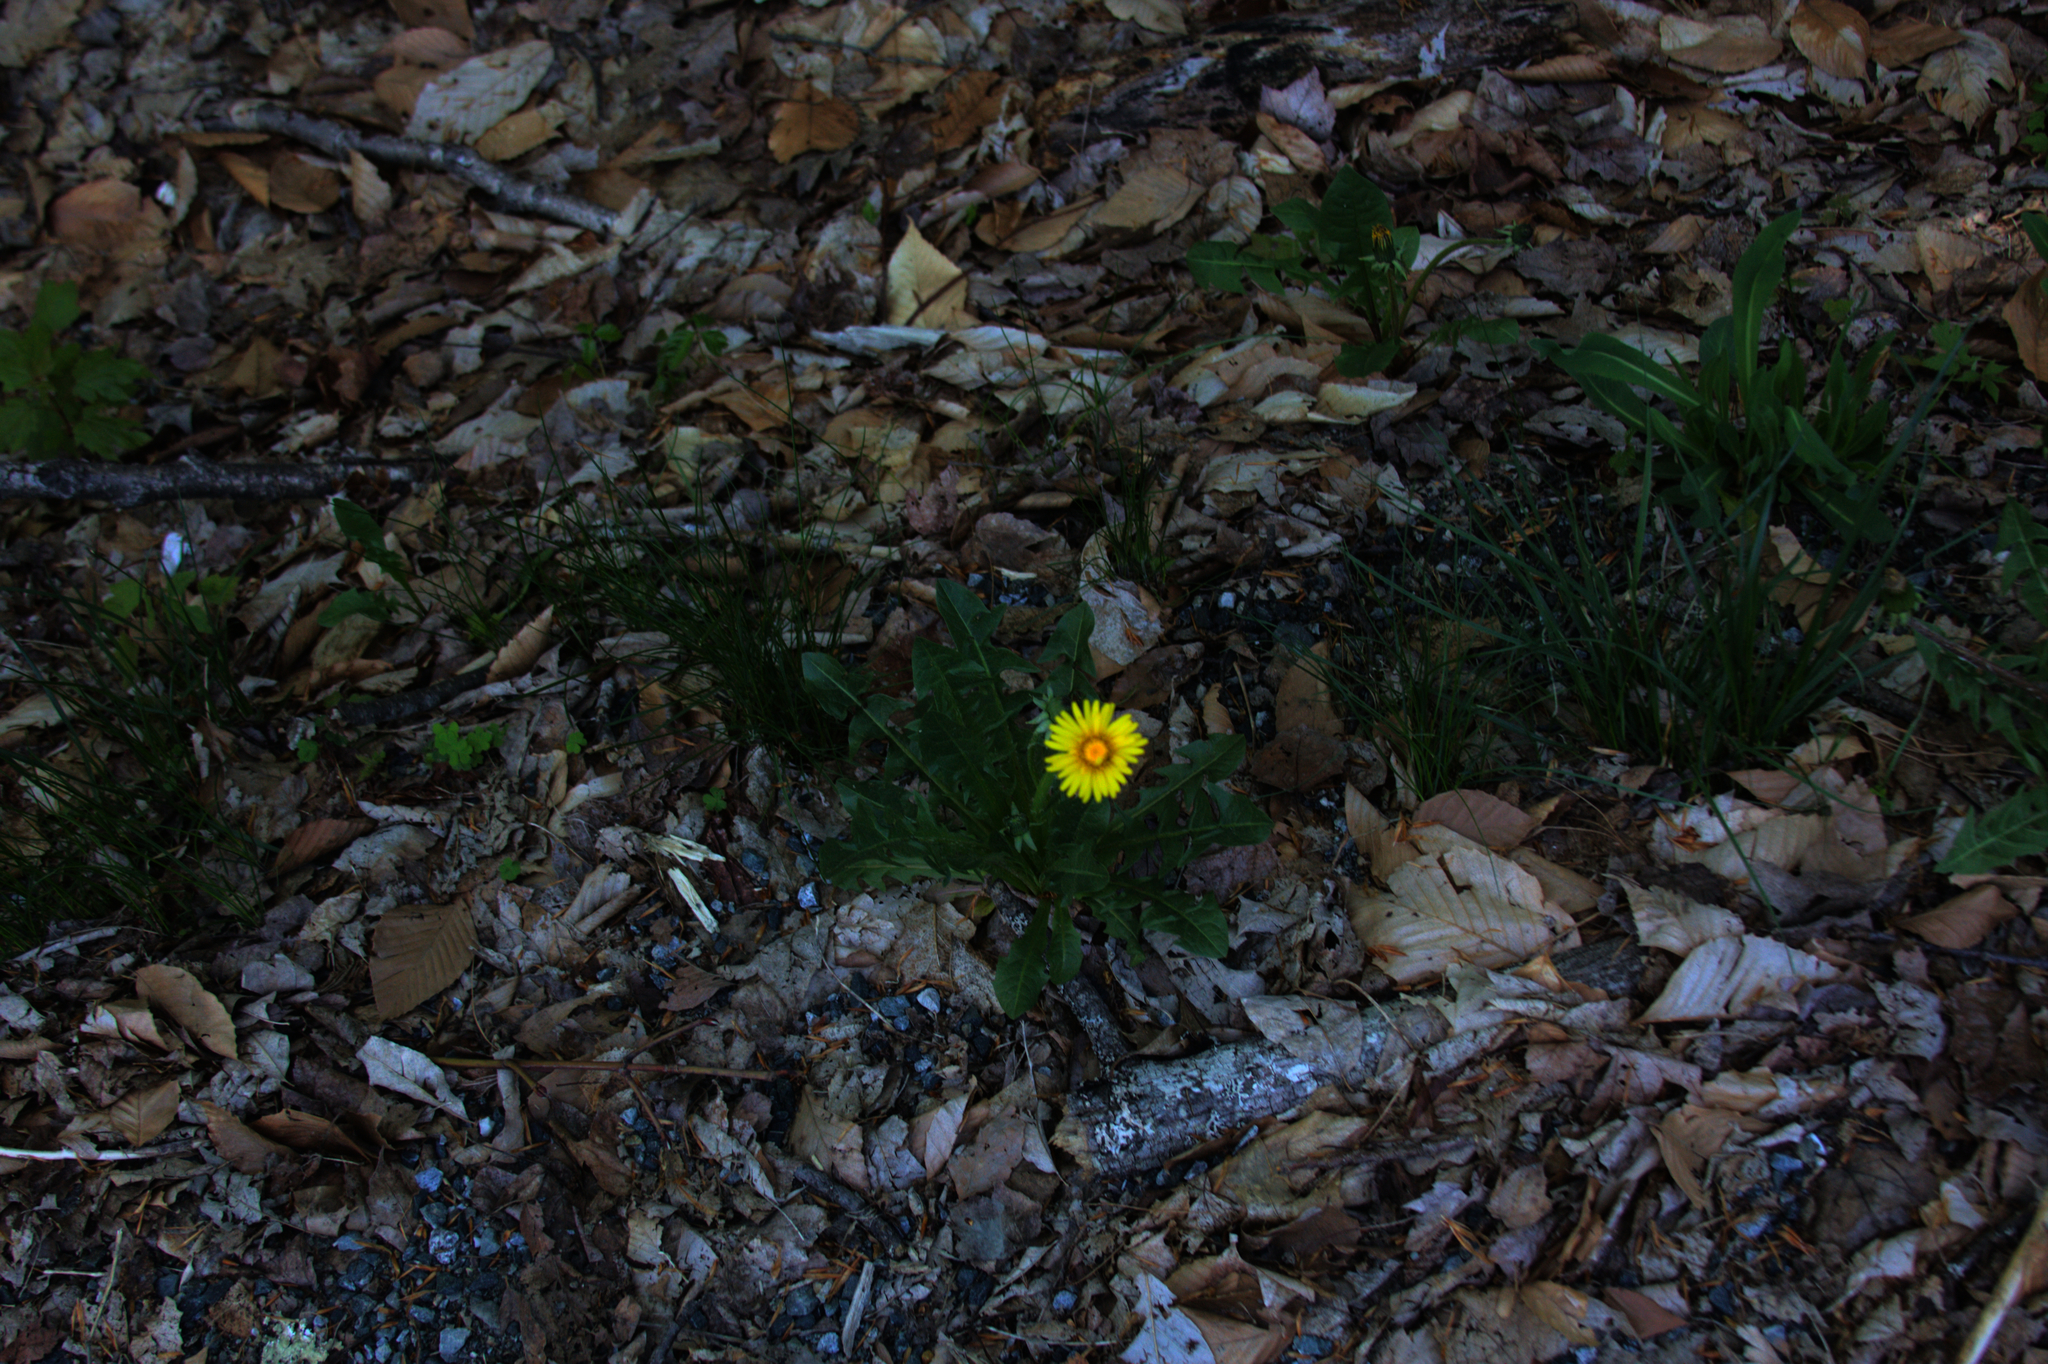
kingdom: Plantae
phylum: Tracheophyta
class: Magnoliopsida
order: Asterales
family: Asteraceae
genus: Taraxacum
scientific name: Taraxacum officinale
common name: Common dandelion
